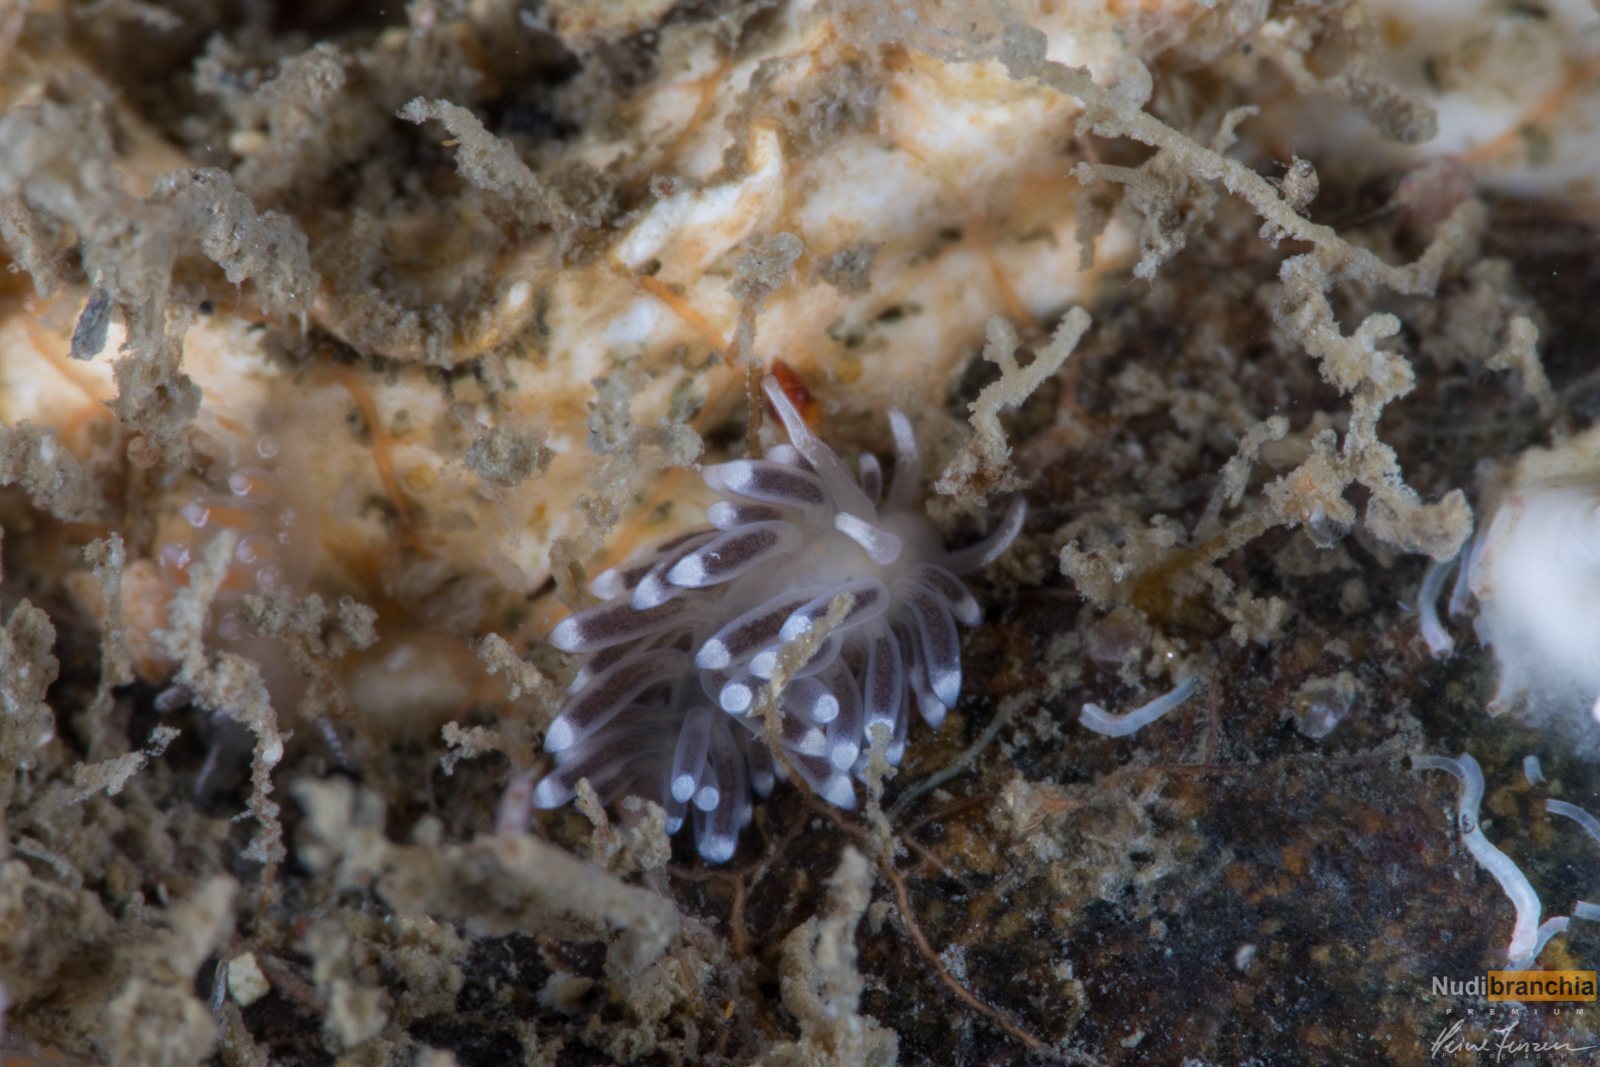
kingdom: Animalia
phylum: Mollusca
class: Gastropoda
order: Nudibranchia
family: Cuthonellidae
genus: Cuthonella
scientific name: Cuthonella concinna
